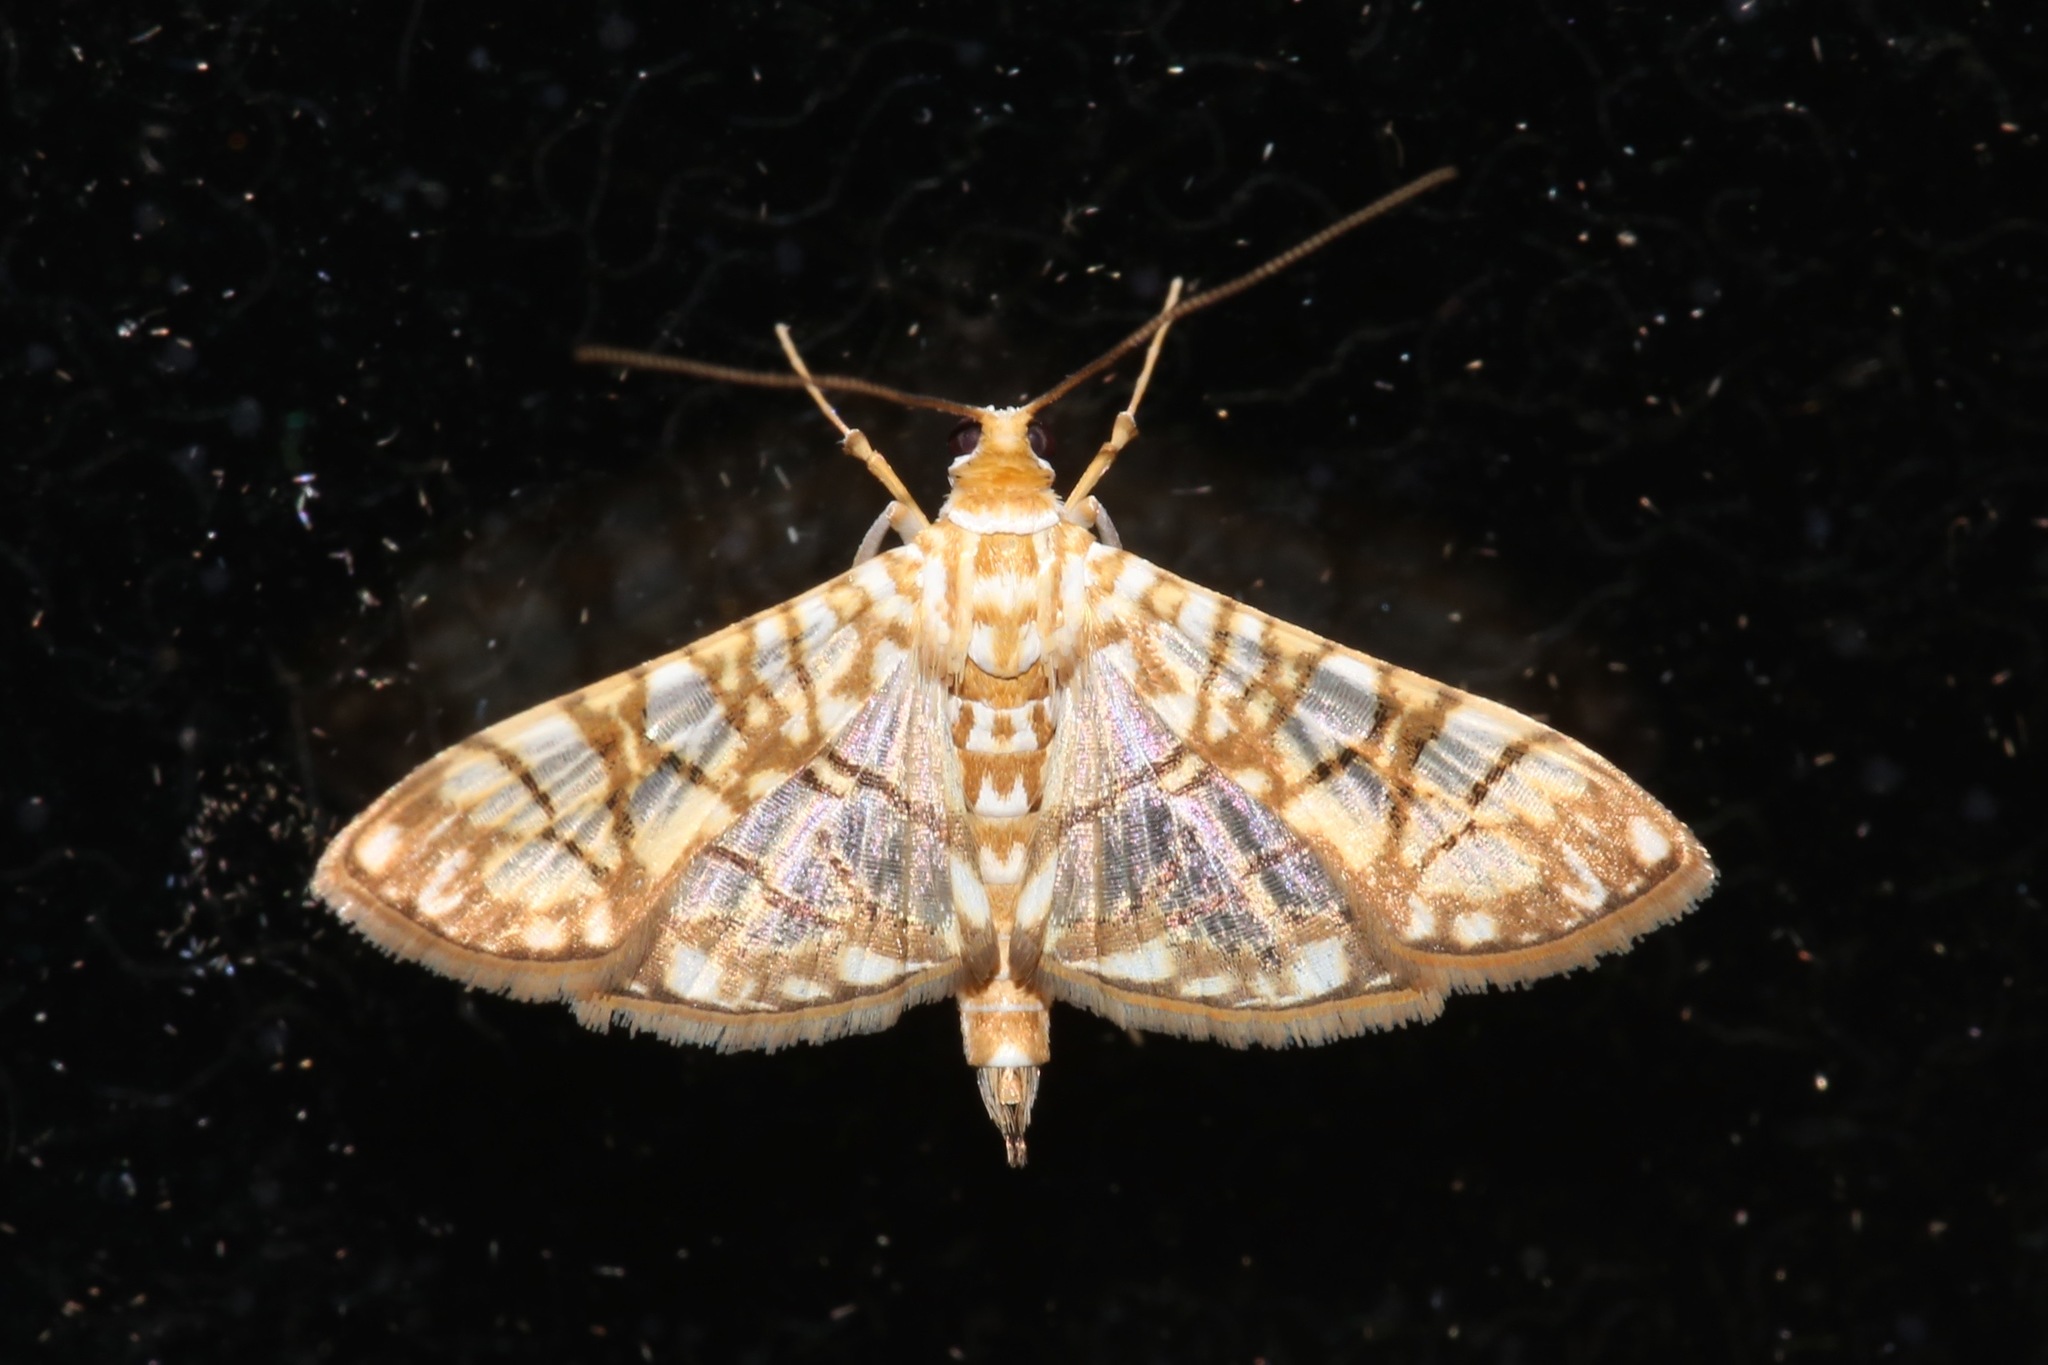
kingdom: Animalia
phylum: Arthropoda
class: Insecta
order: Lepidoptera
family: Crambidae
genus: Synclera
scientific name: Synclera traducalis
